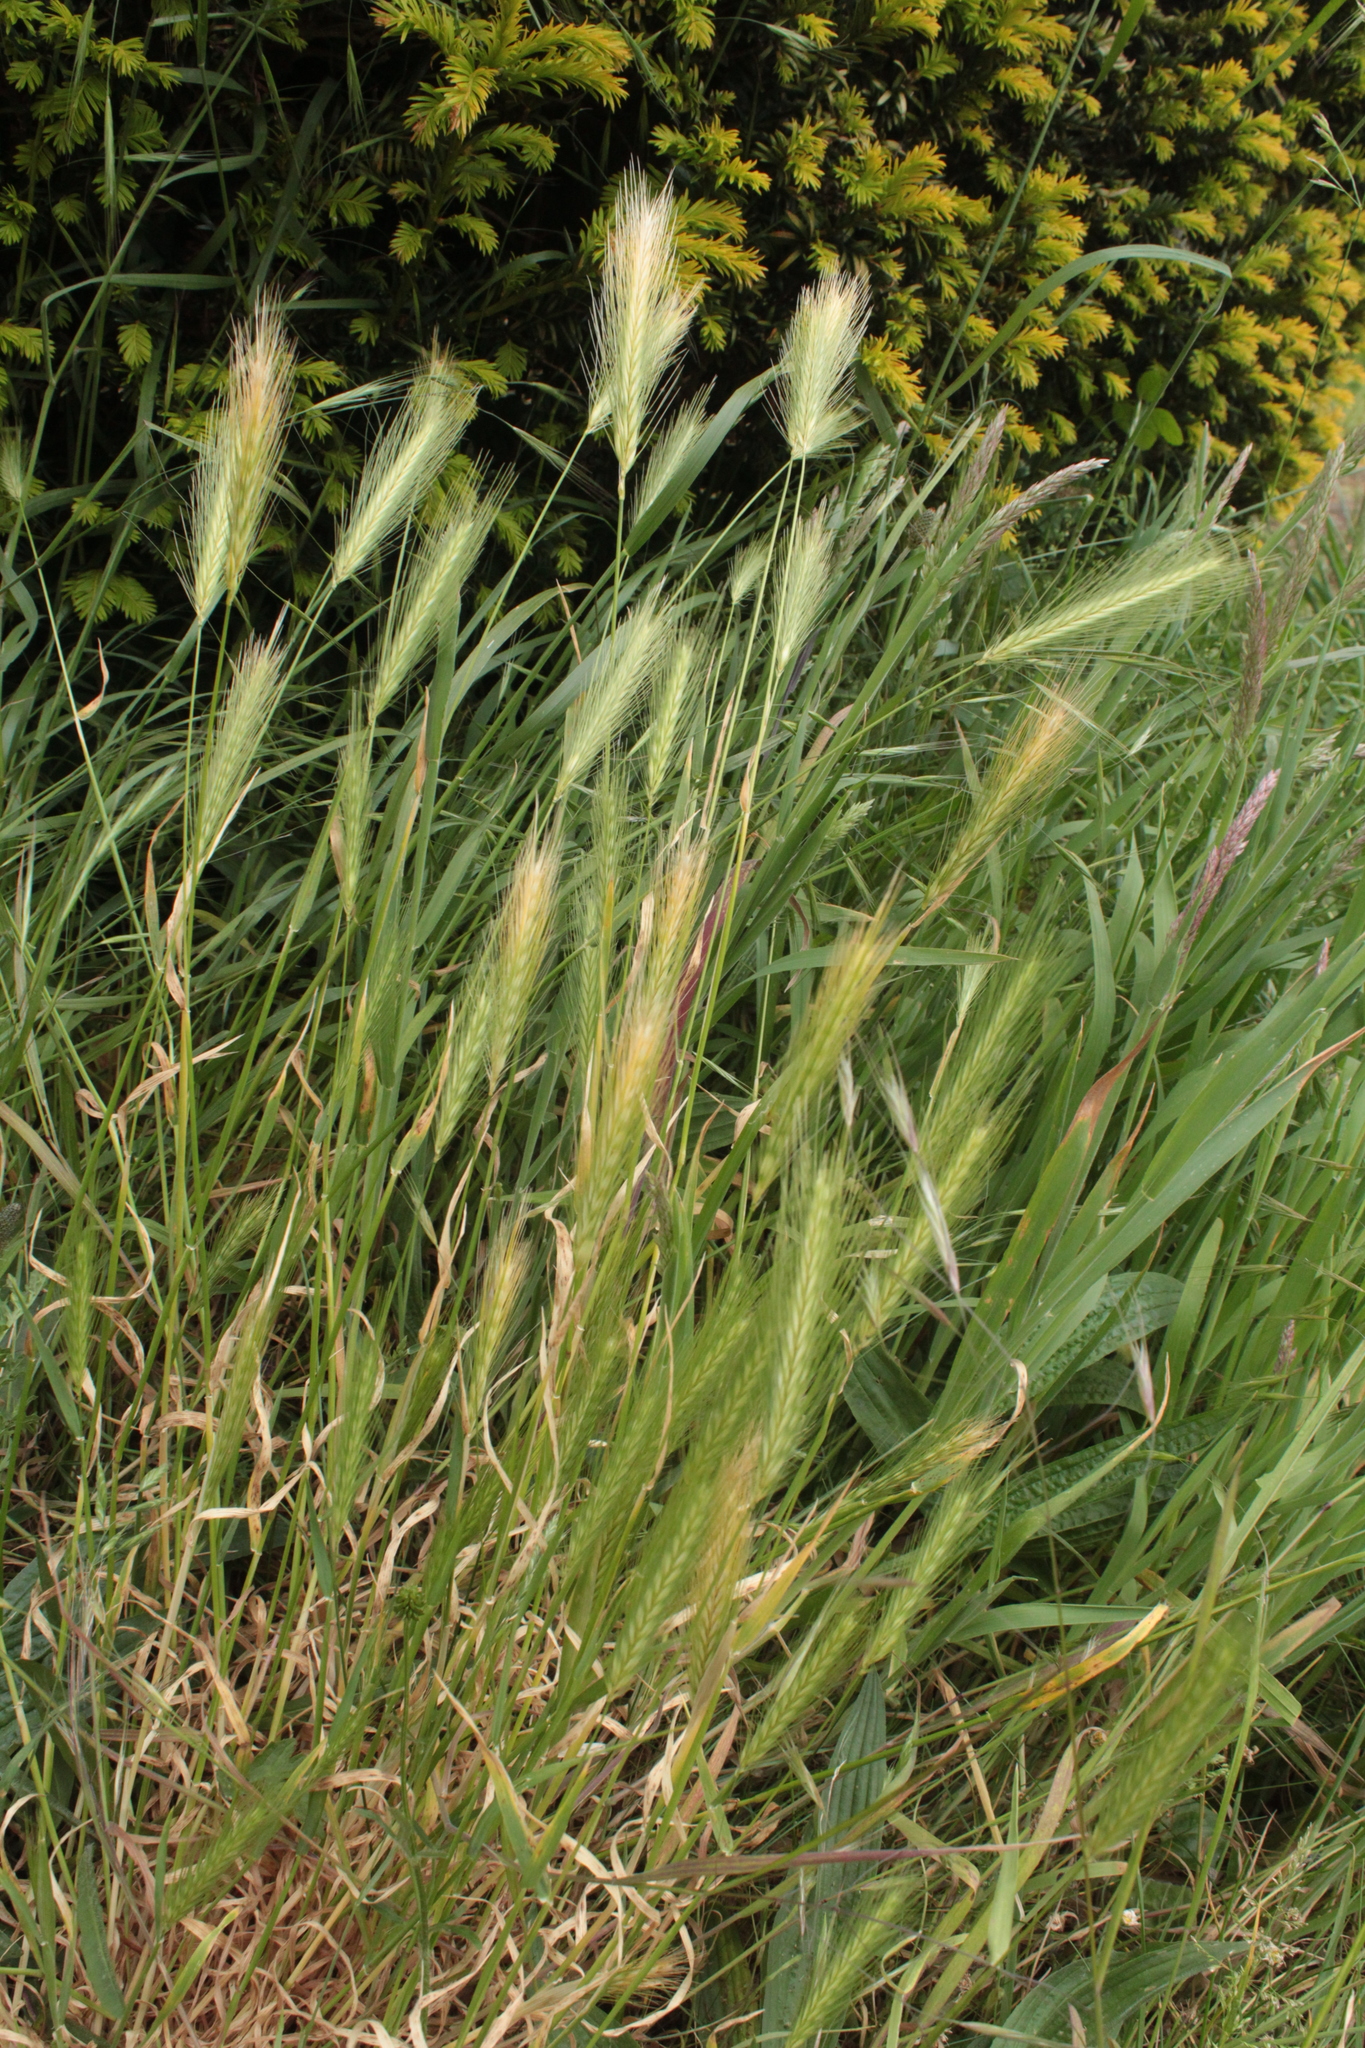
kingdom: Plantae
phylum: Tracheophyta
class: Liliopsida
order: Poales
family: Poaceae
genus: Hordeum
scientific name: Hordeum murinum
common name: Wall barley
